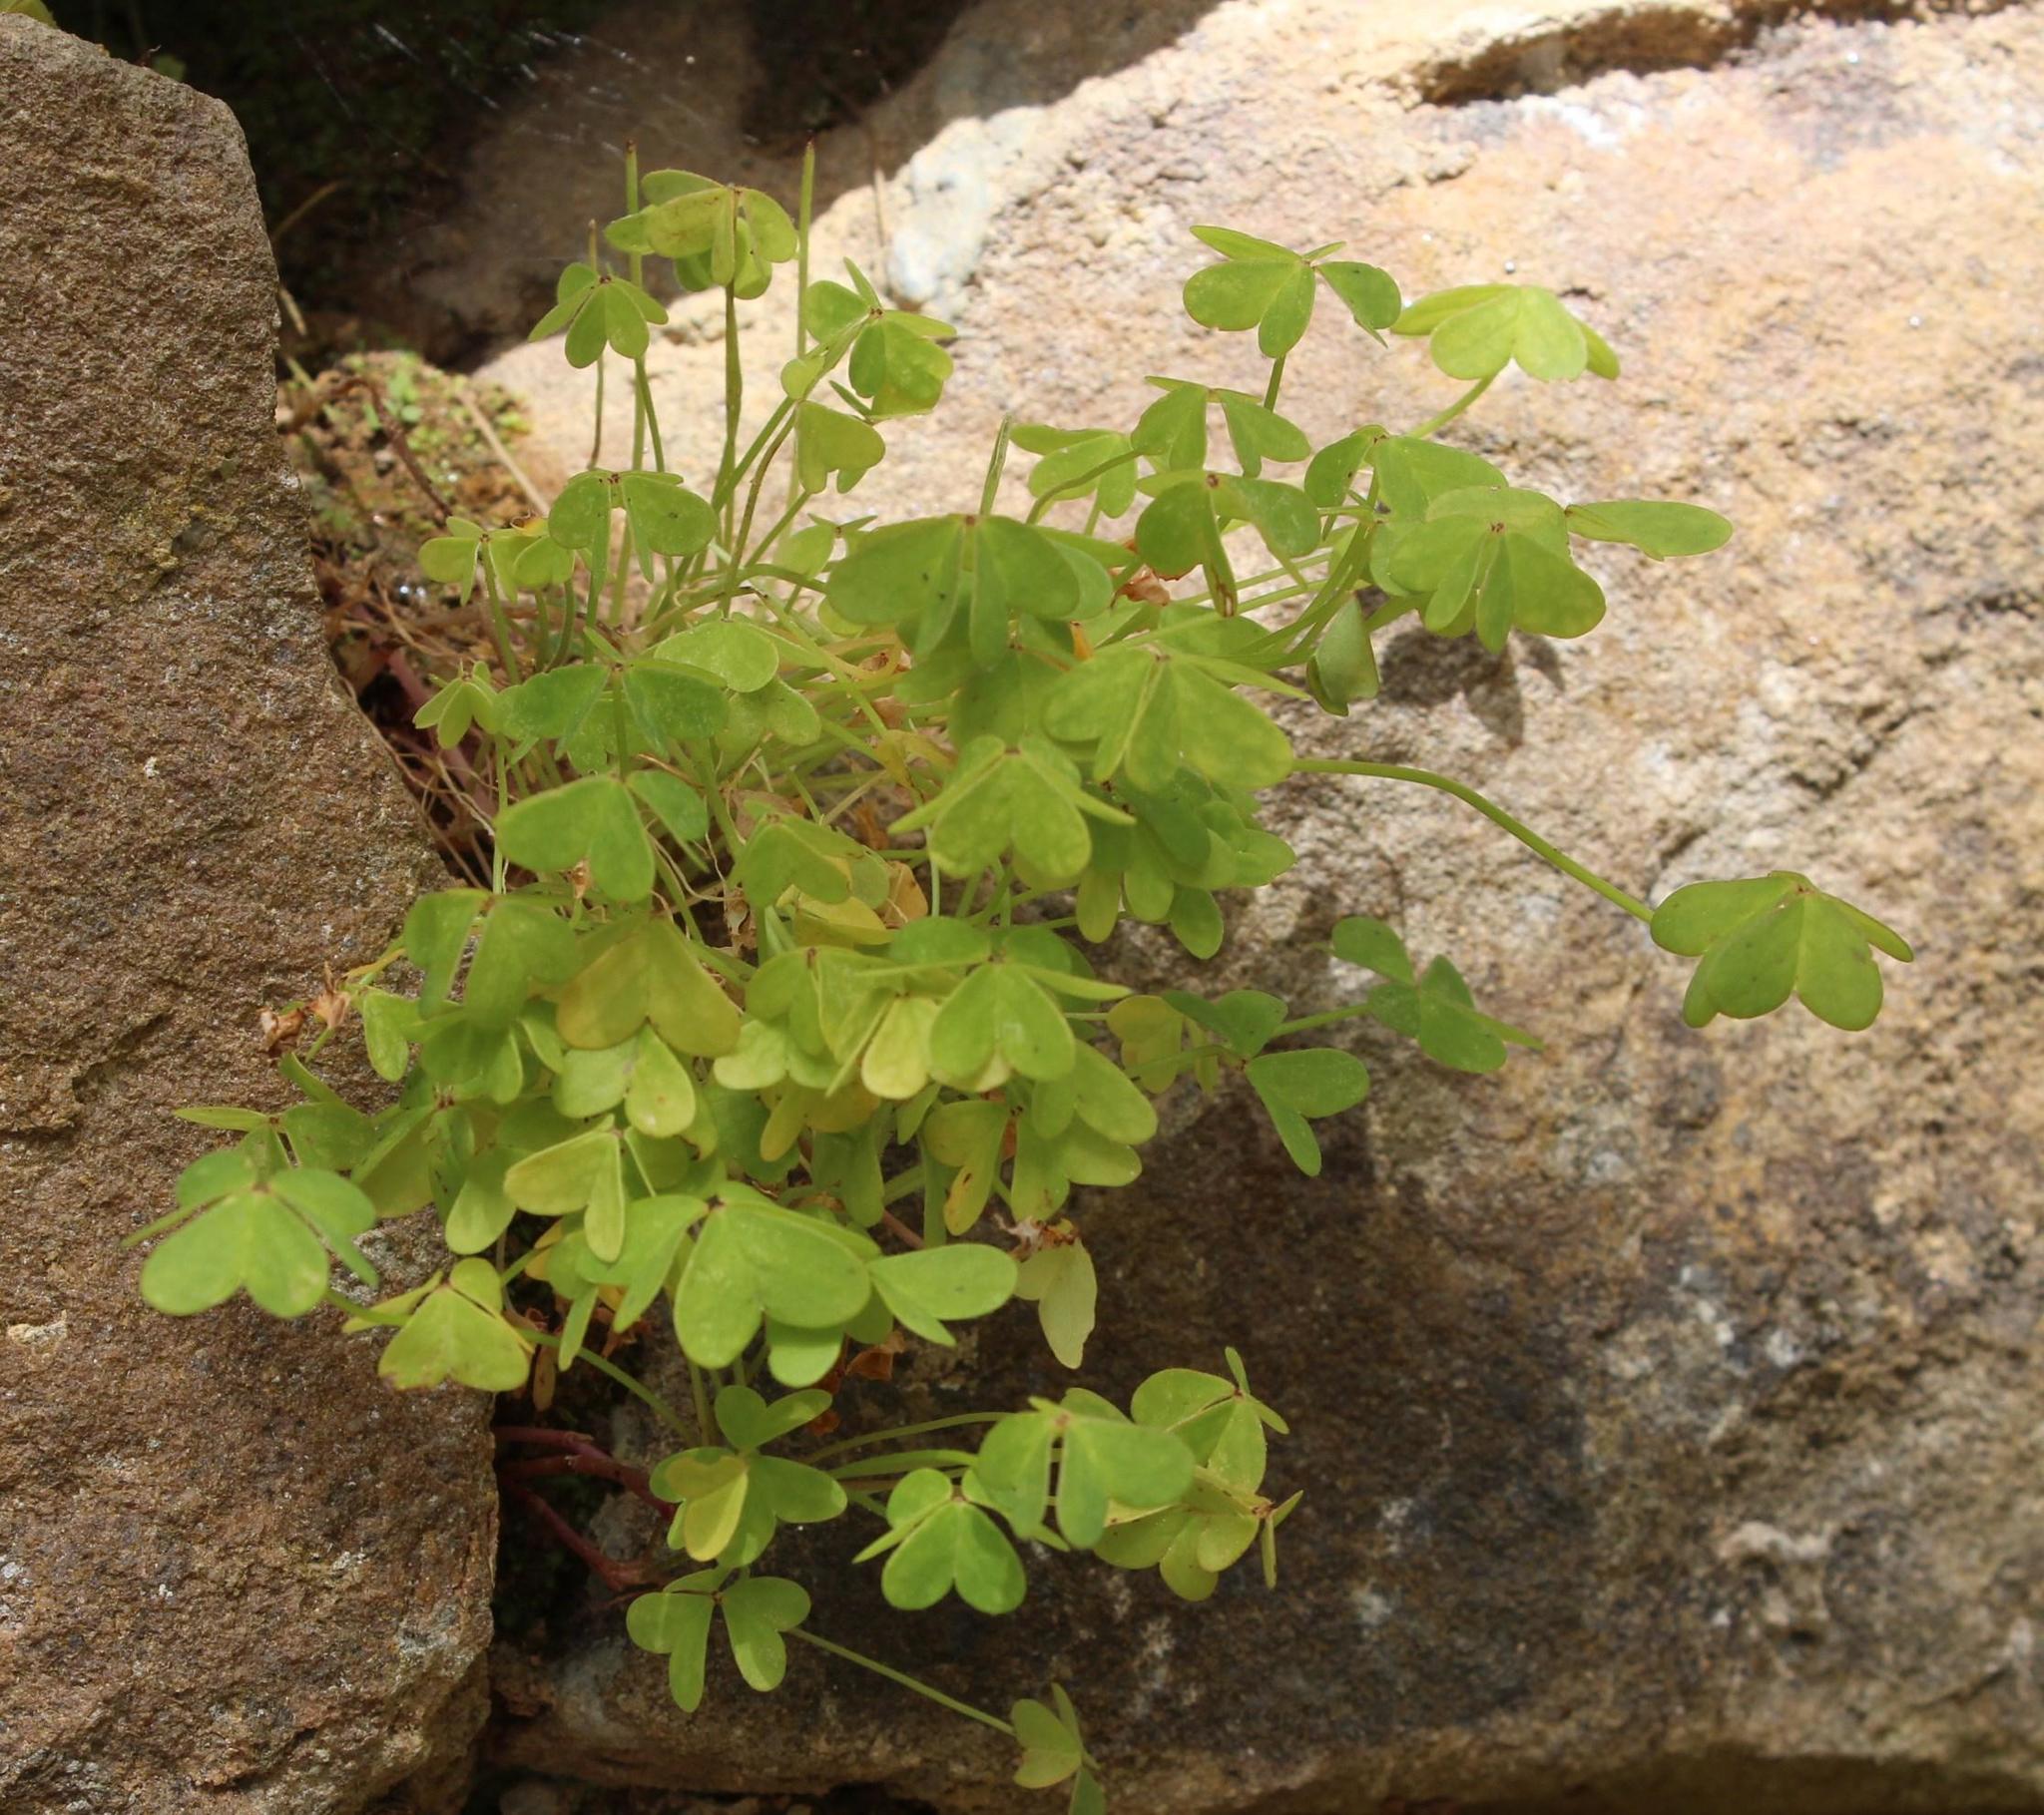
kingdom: Plantae
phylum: Tracheophyta
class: Magnoliopsida
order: Oxalidales
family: Oxalidaceae
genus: Oxalis
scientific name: Oxalis pes-caprae
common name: Bermuda-buttercup
